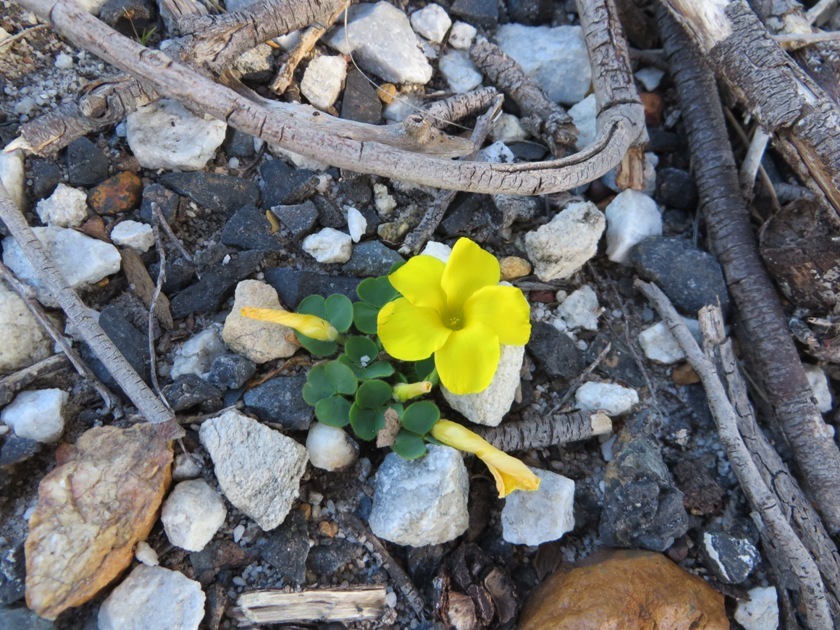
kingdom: Plantae
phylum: Tracheophyta
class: Magnoliopsida
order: Oxalidales
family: Oxalidaceae
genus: Oxalis
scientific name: Oxalis luteola
